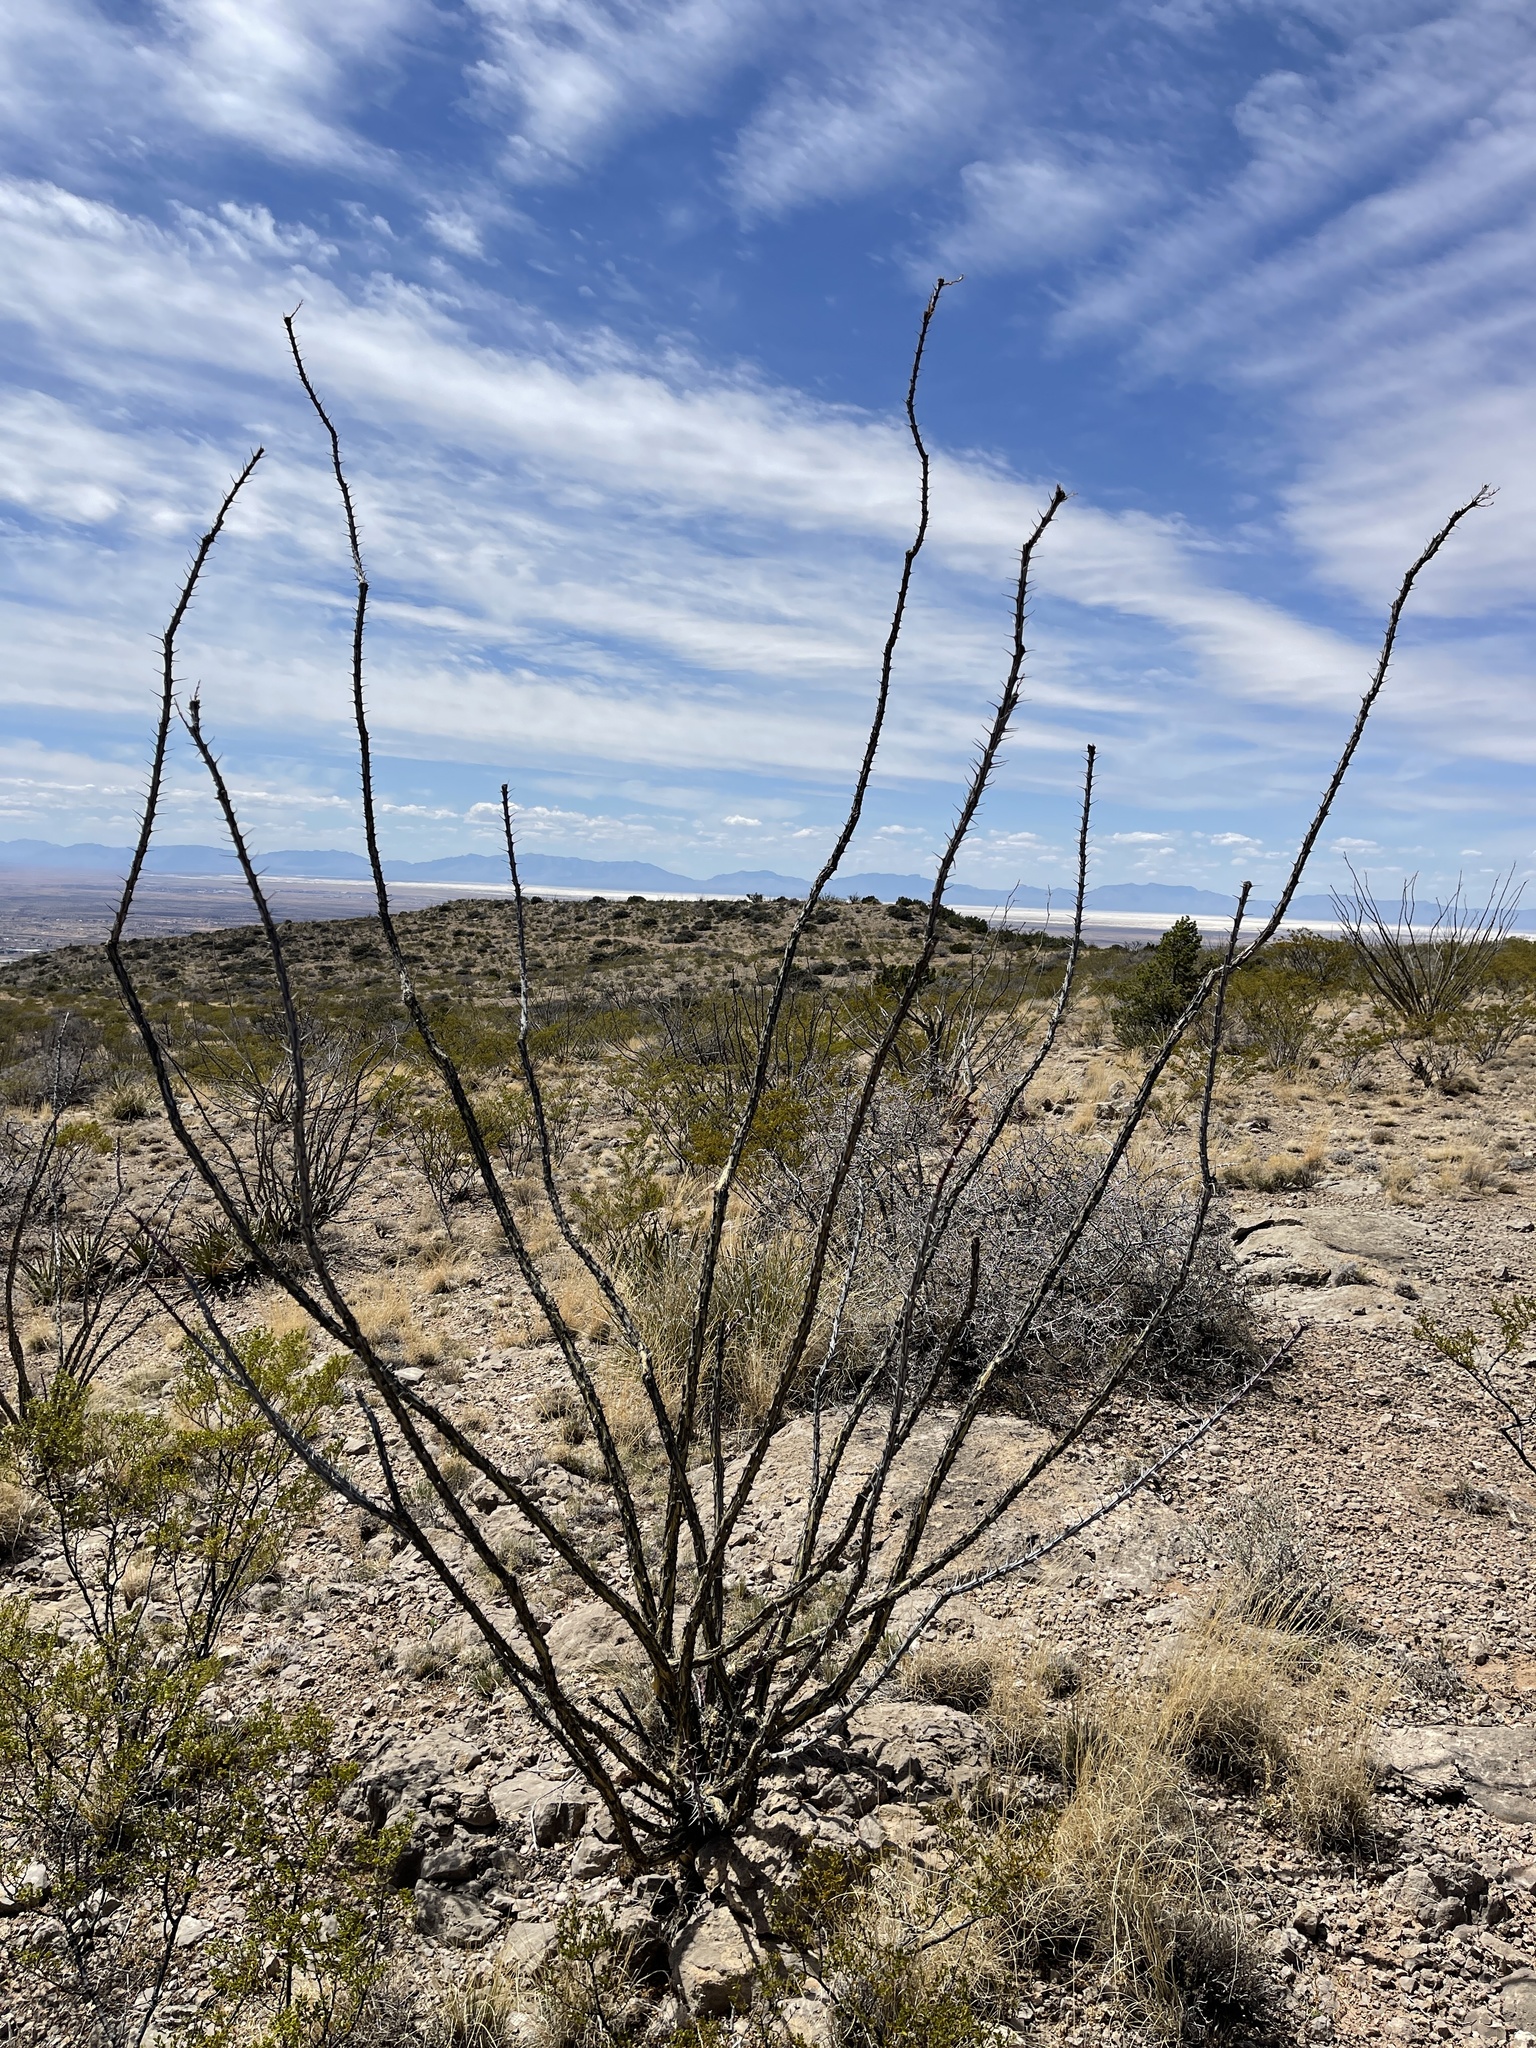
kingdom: Plantae
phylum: Tracheophyta
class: Magnoliopsida
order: Ericales
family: Fouquieriaceae
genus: Fouquieria
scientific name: Fouquieria splendens
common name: Vine-cactus
